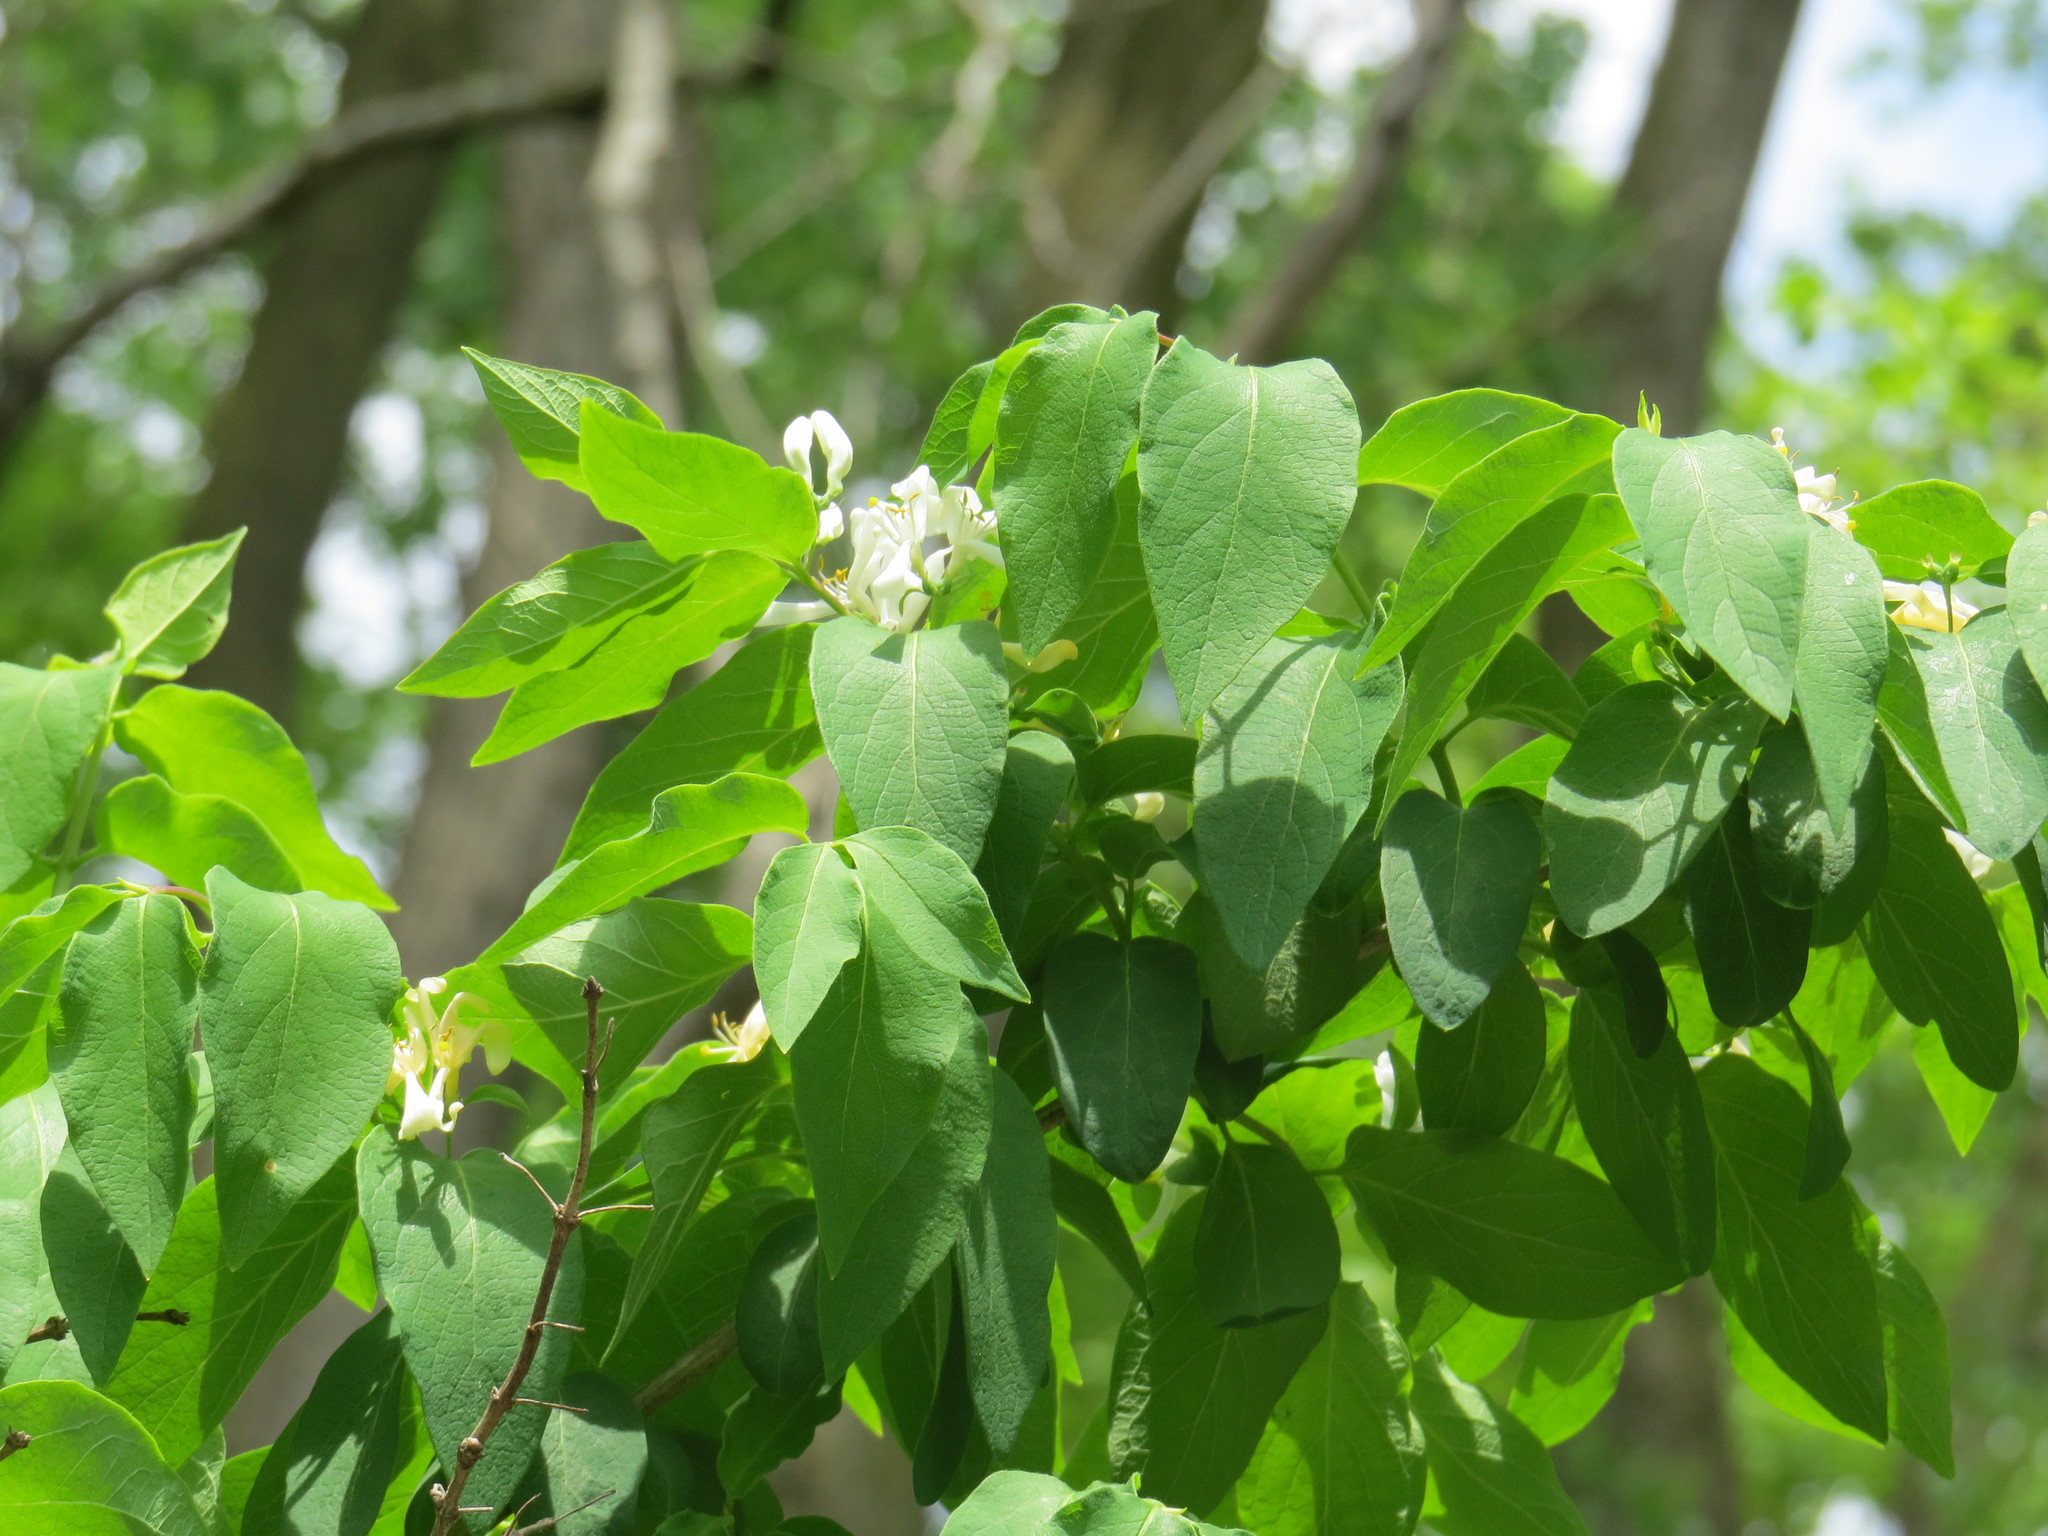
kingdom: Plantae
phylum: Tracheophyta
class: Magnoliopsida
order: Dipsacales
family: Caprifoliaceae
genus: Lonicera
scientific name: Lonicera morrowii
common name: Morrow's honeysuckle
